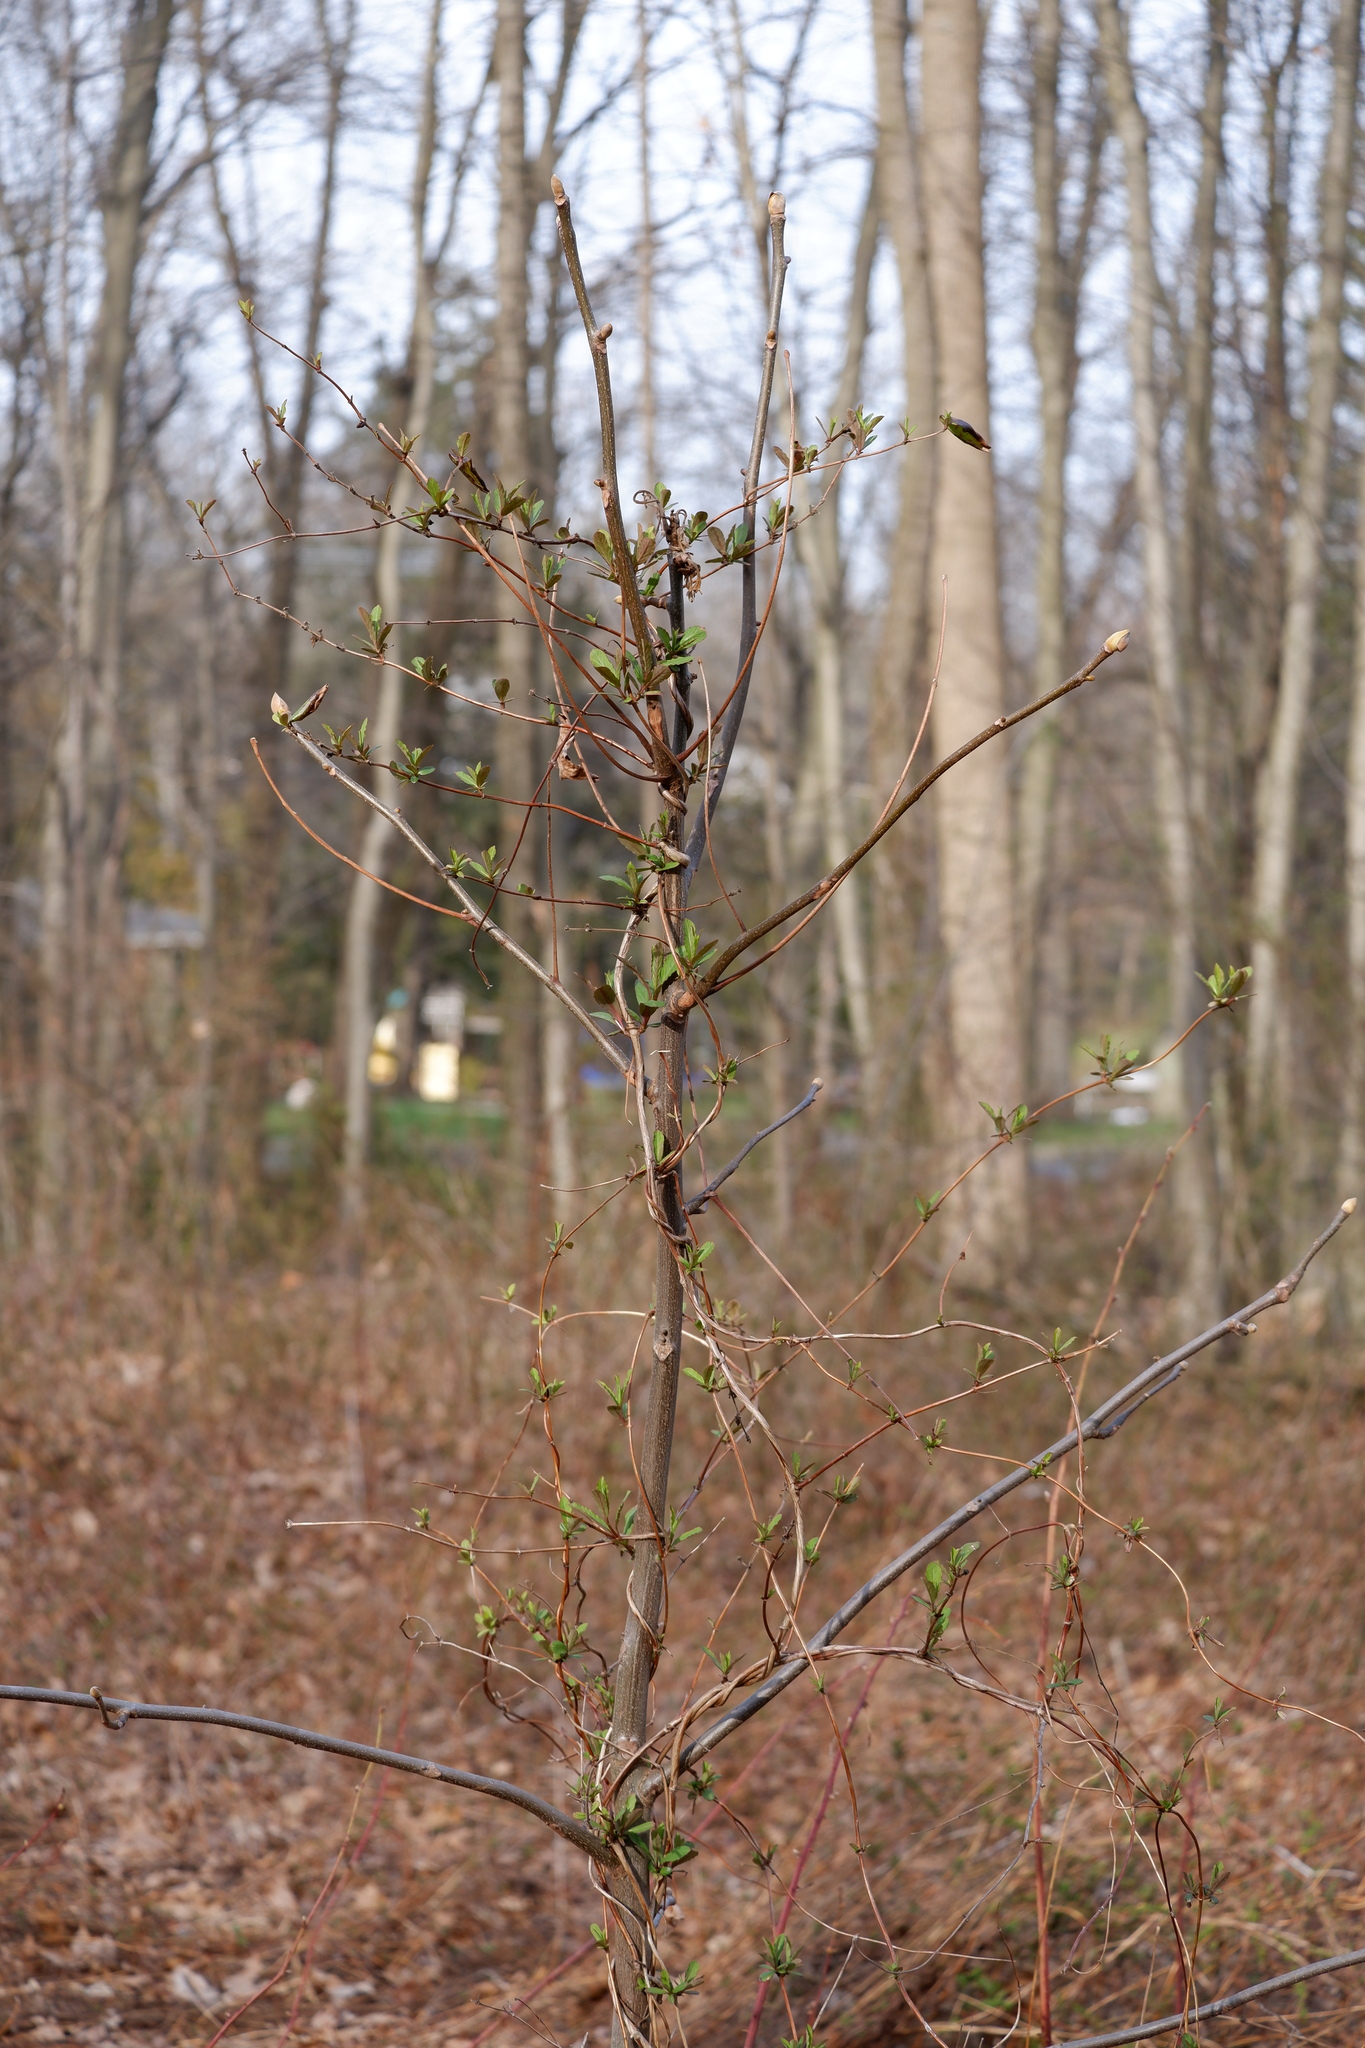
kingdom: Plantae
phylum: Tracheophyta
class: Magnoliopsida
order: Dipsacales
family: Caprifoliaceae
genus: Lonicera
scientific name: Lonicera japonica
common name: Japanese honeysuckle
